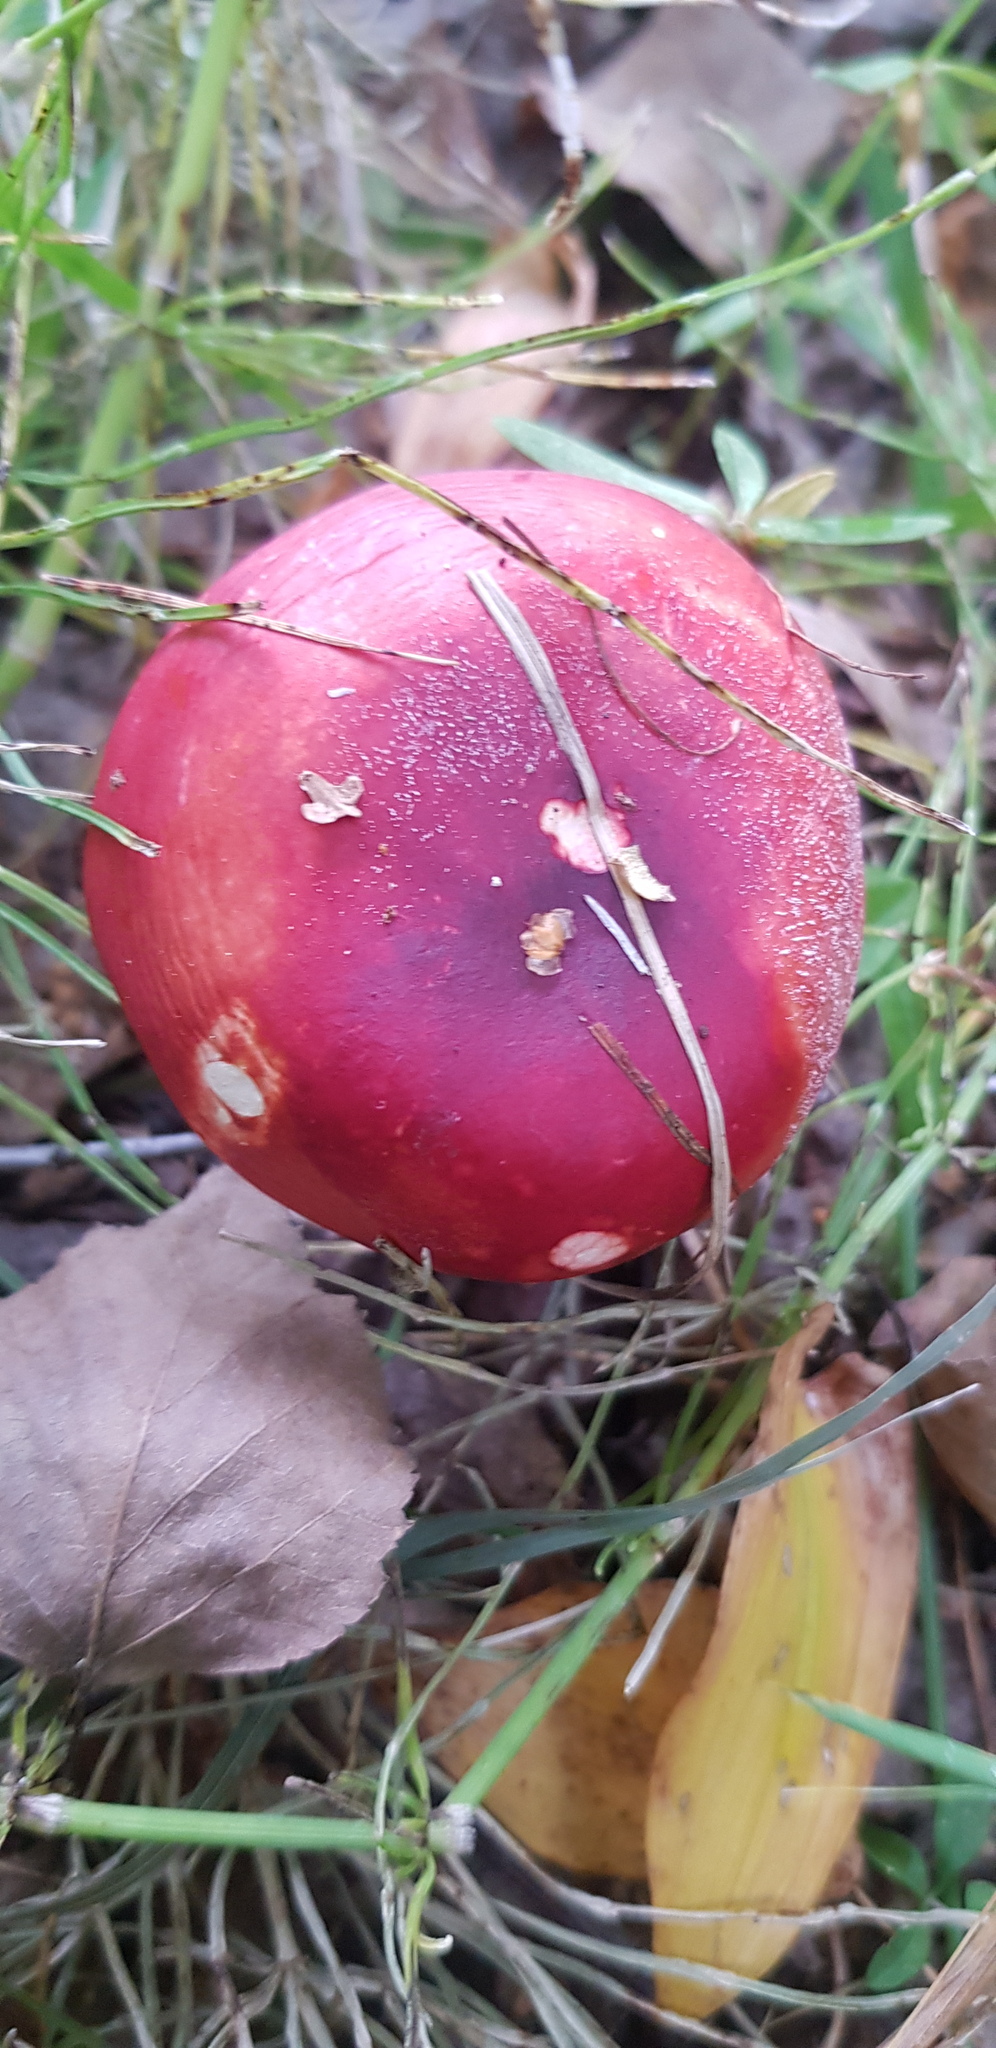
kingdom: Fungi
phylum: Basidiomycota
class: Agaricomycetes
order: Russulales
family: Russulaceae
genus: Russula
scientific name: Russula
